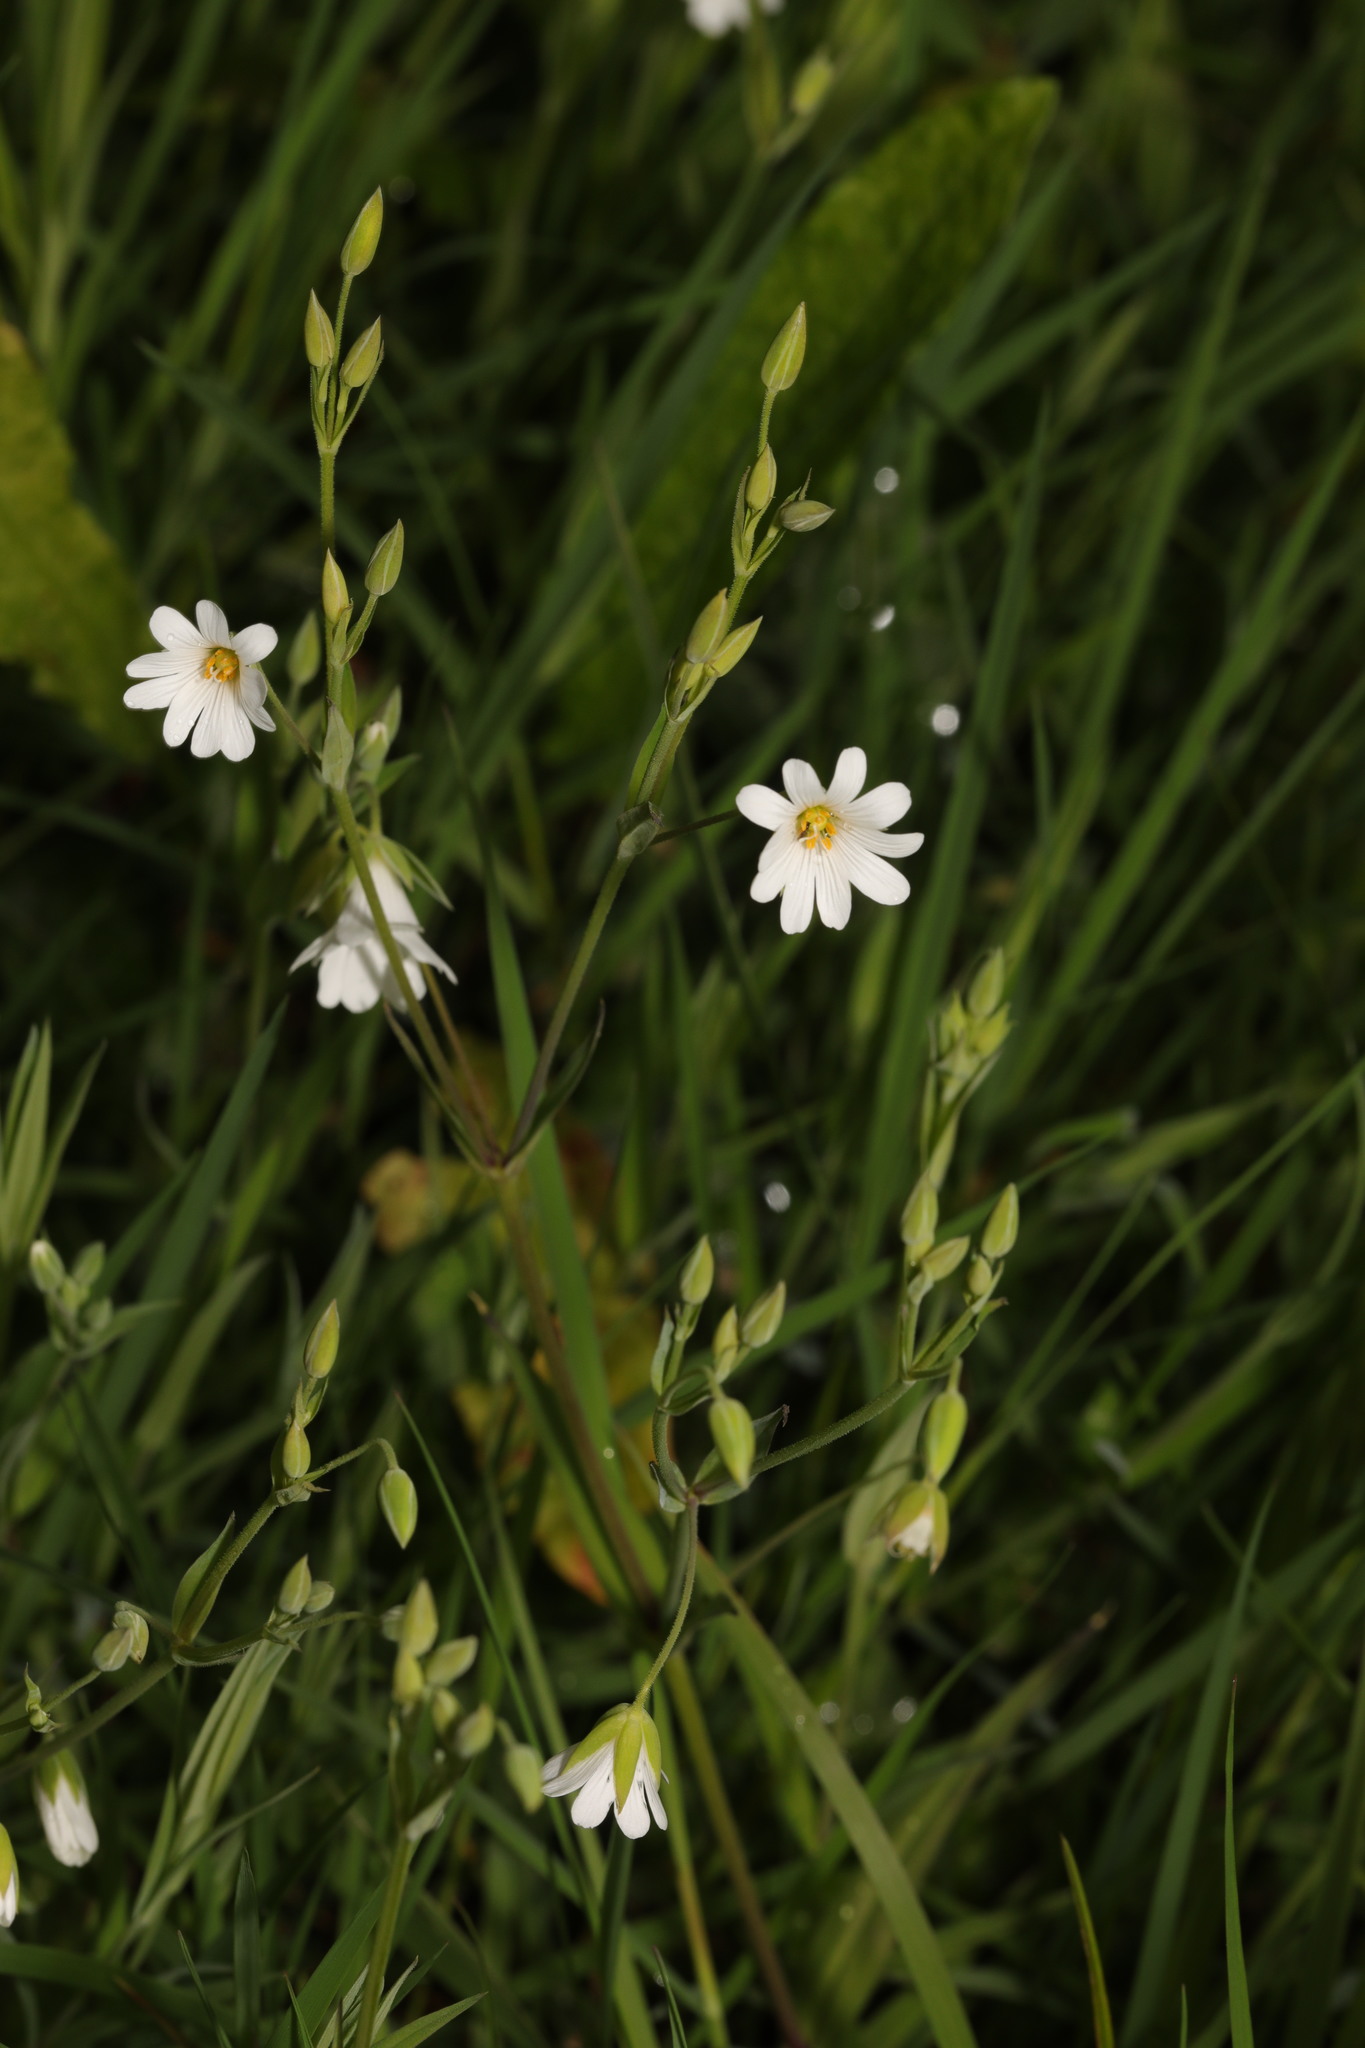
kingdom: Plantae
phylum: Tracheophyta
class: Magnoliopsida
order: Caryophyllales
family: Caryophyllaceae
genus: Rabelera
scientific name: Rabelera holostea
